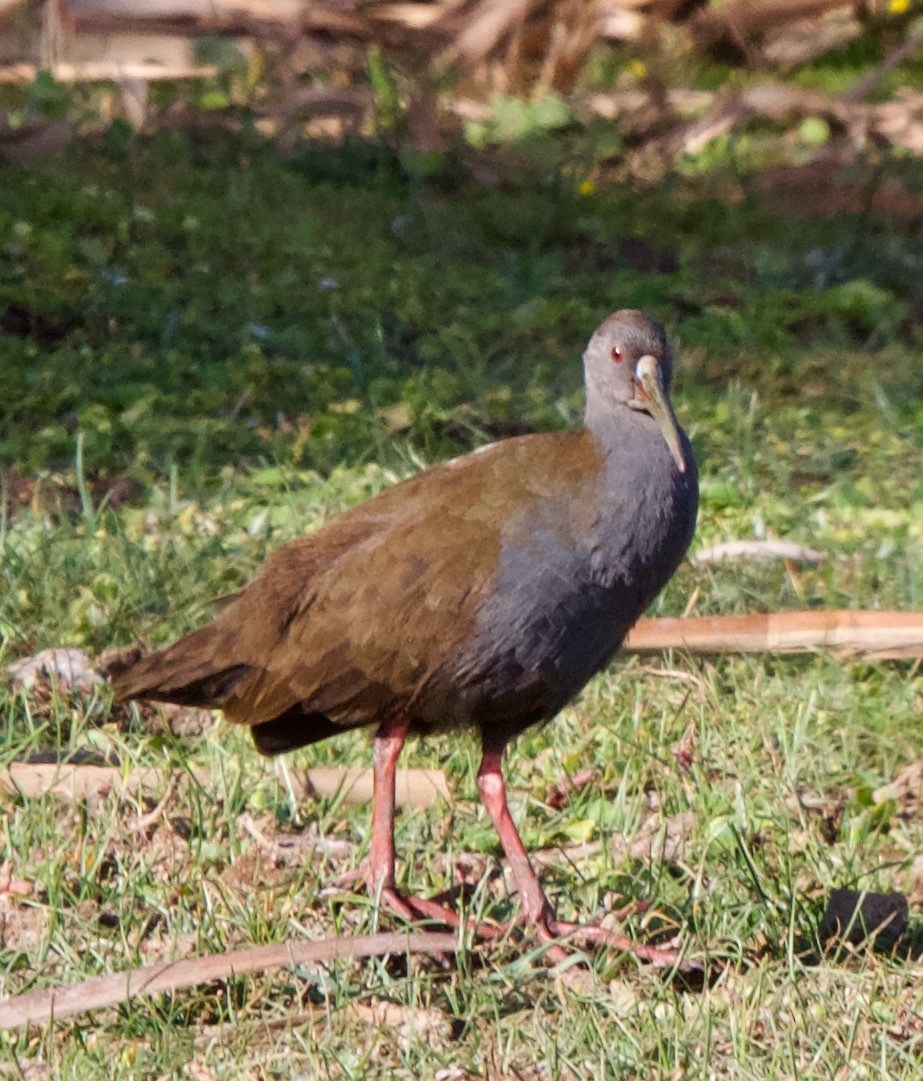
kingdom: Animalia
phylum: Chordata
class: Aves
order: Gruiformes
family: Rallidae
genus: Pardirallus
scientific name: Pardirallus sanguinolentus
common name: Plumbeous rail
